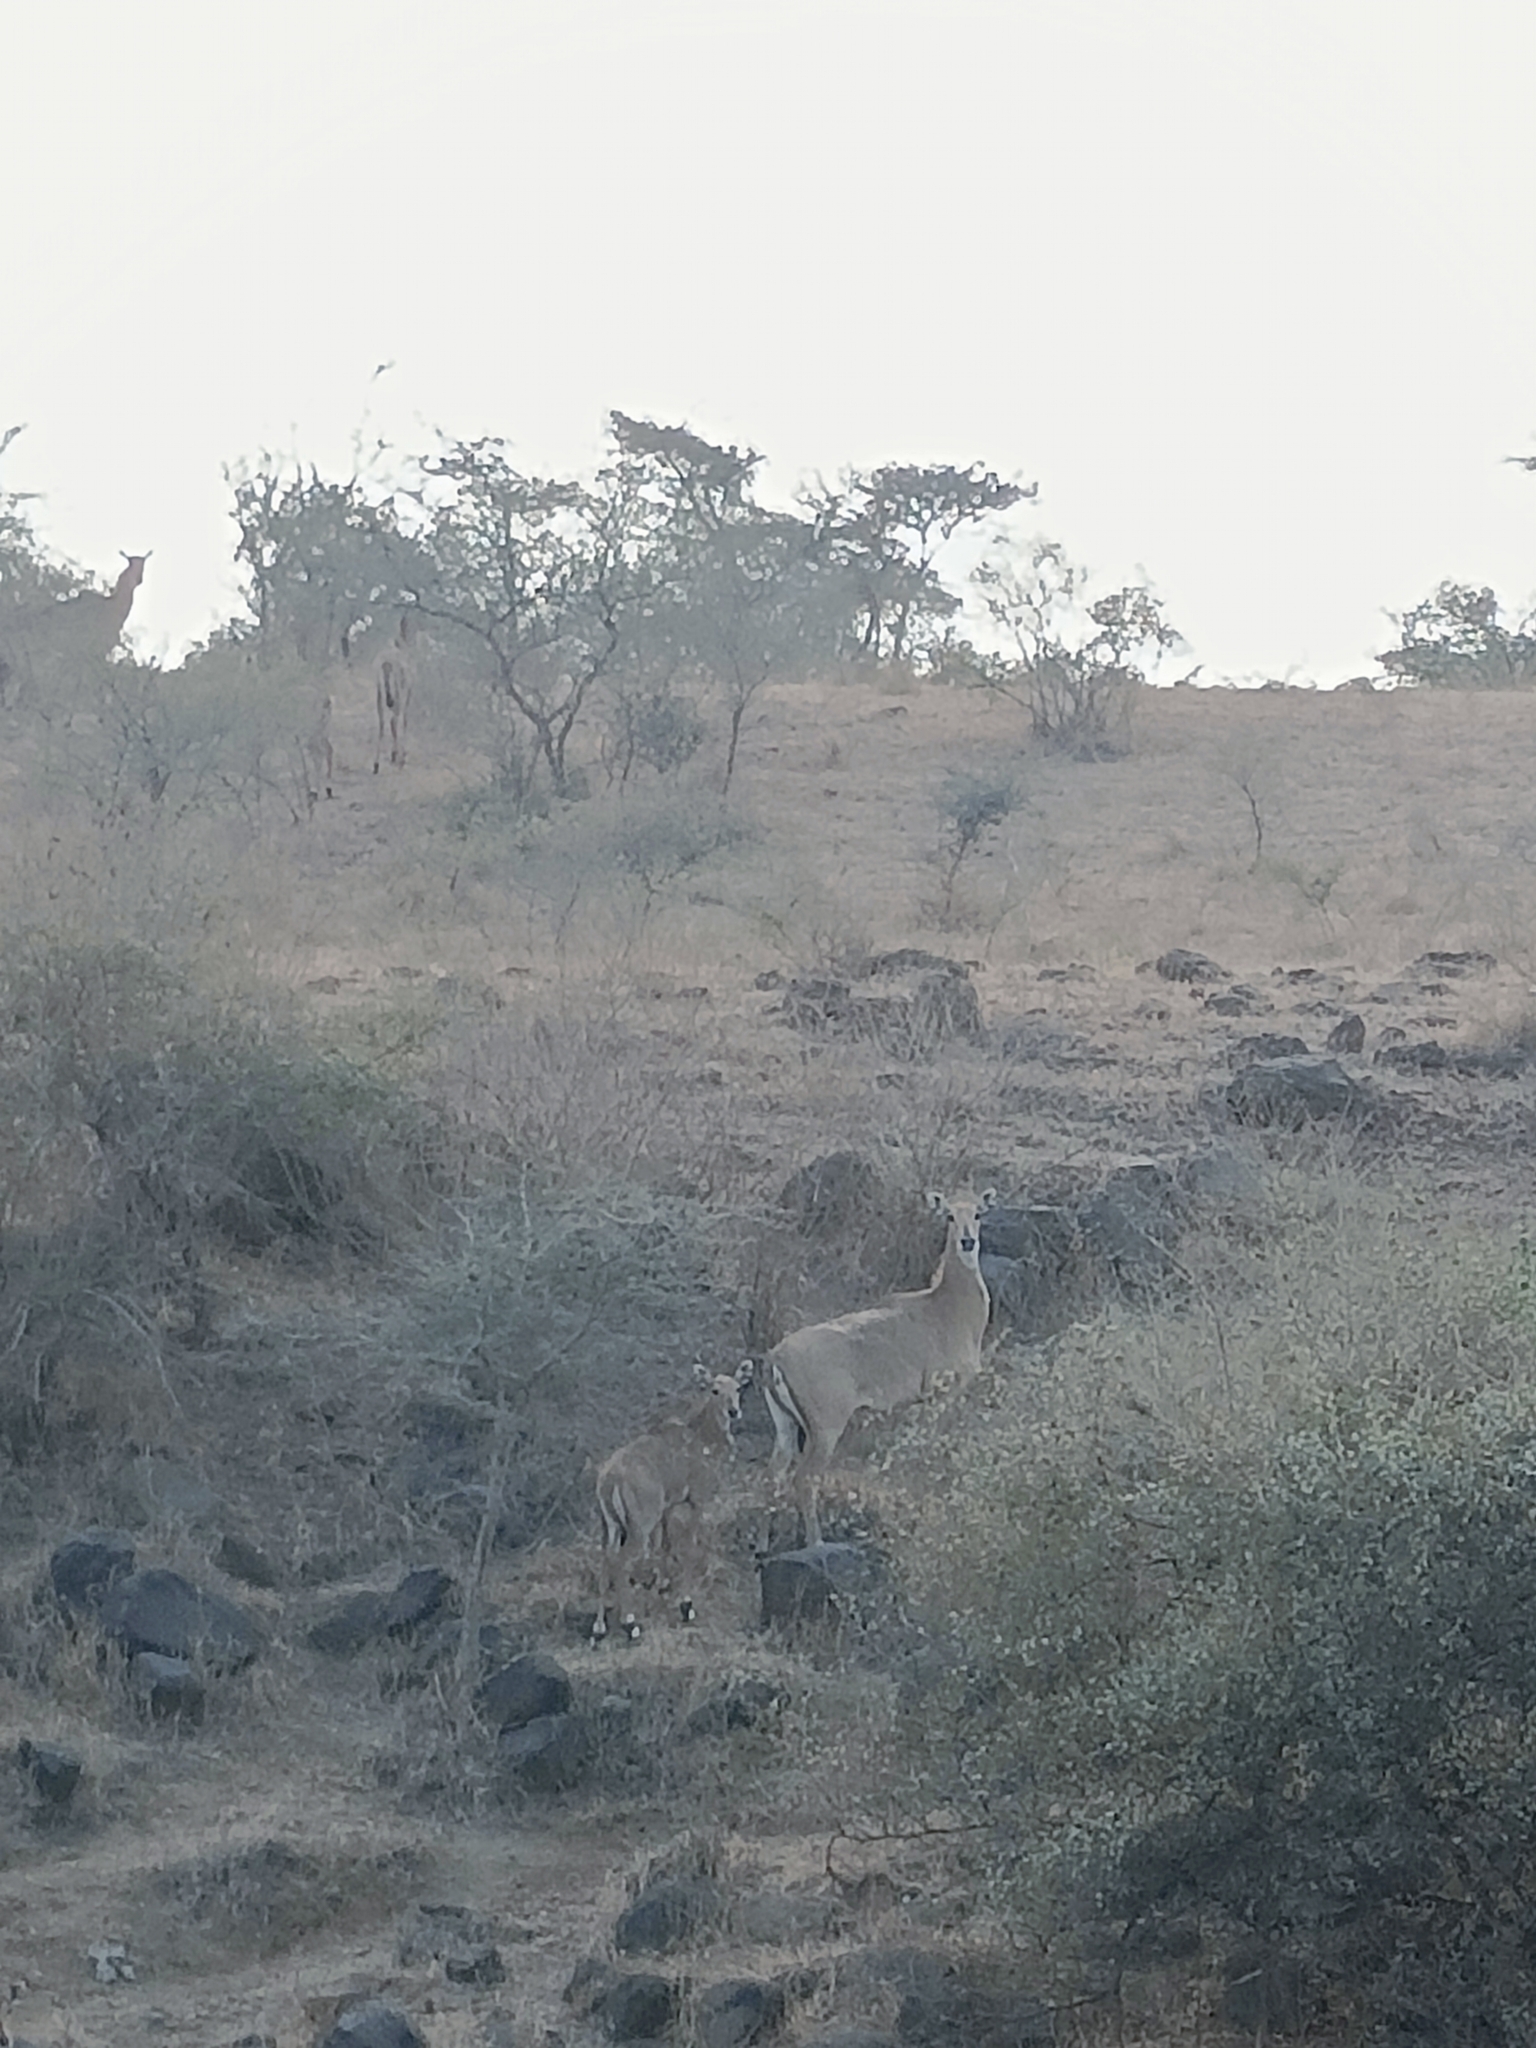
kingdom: Animalia
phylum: Chordata
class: Mammalia
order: Artiodactyla
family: Bovidae
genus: Boselaphus
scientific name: Boselaphus tragocamelus
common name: Nilgai
